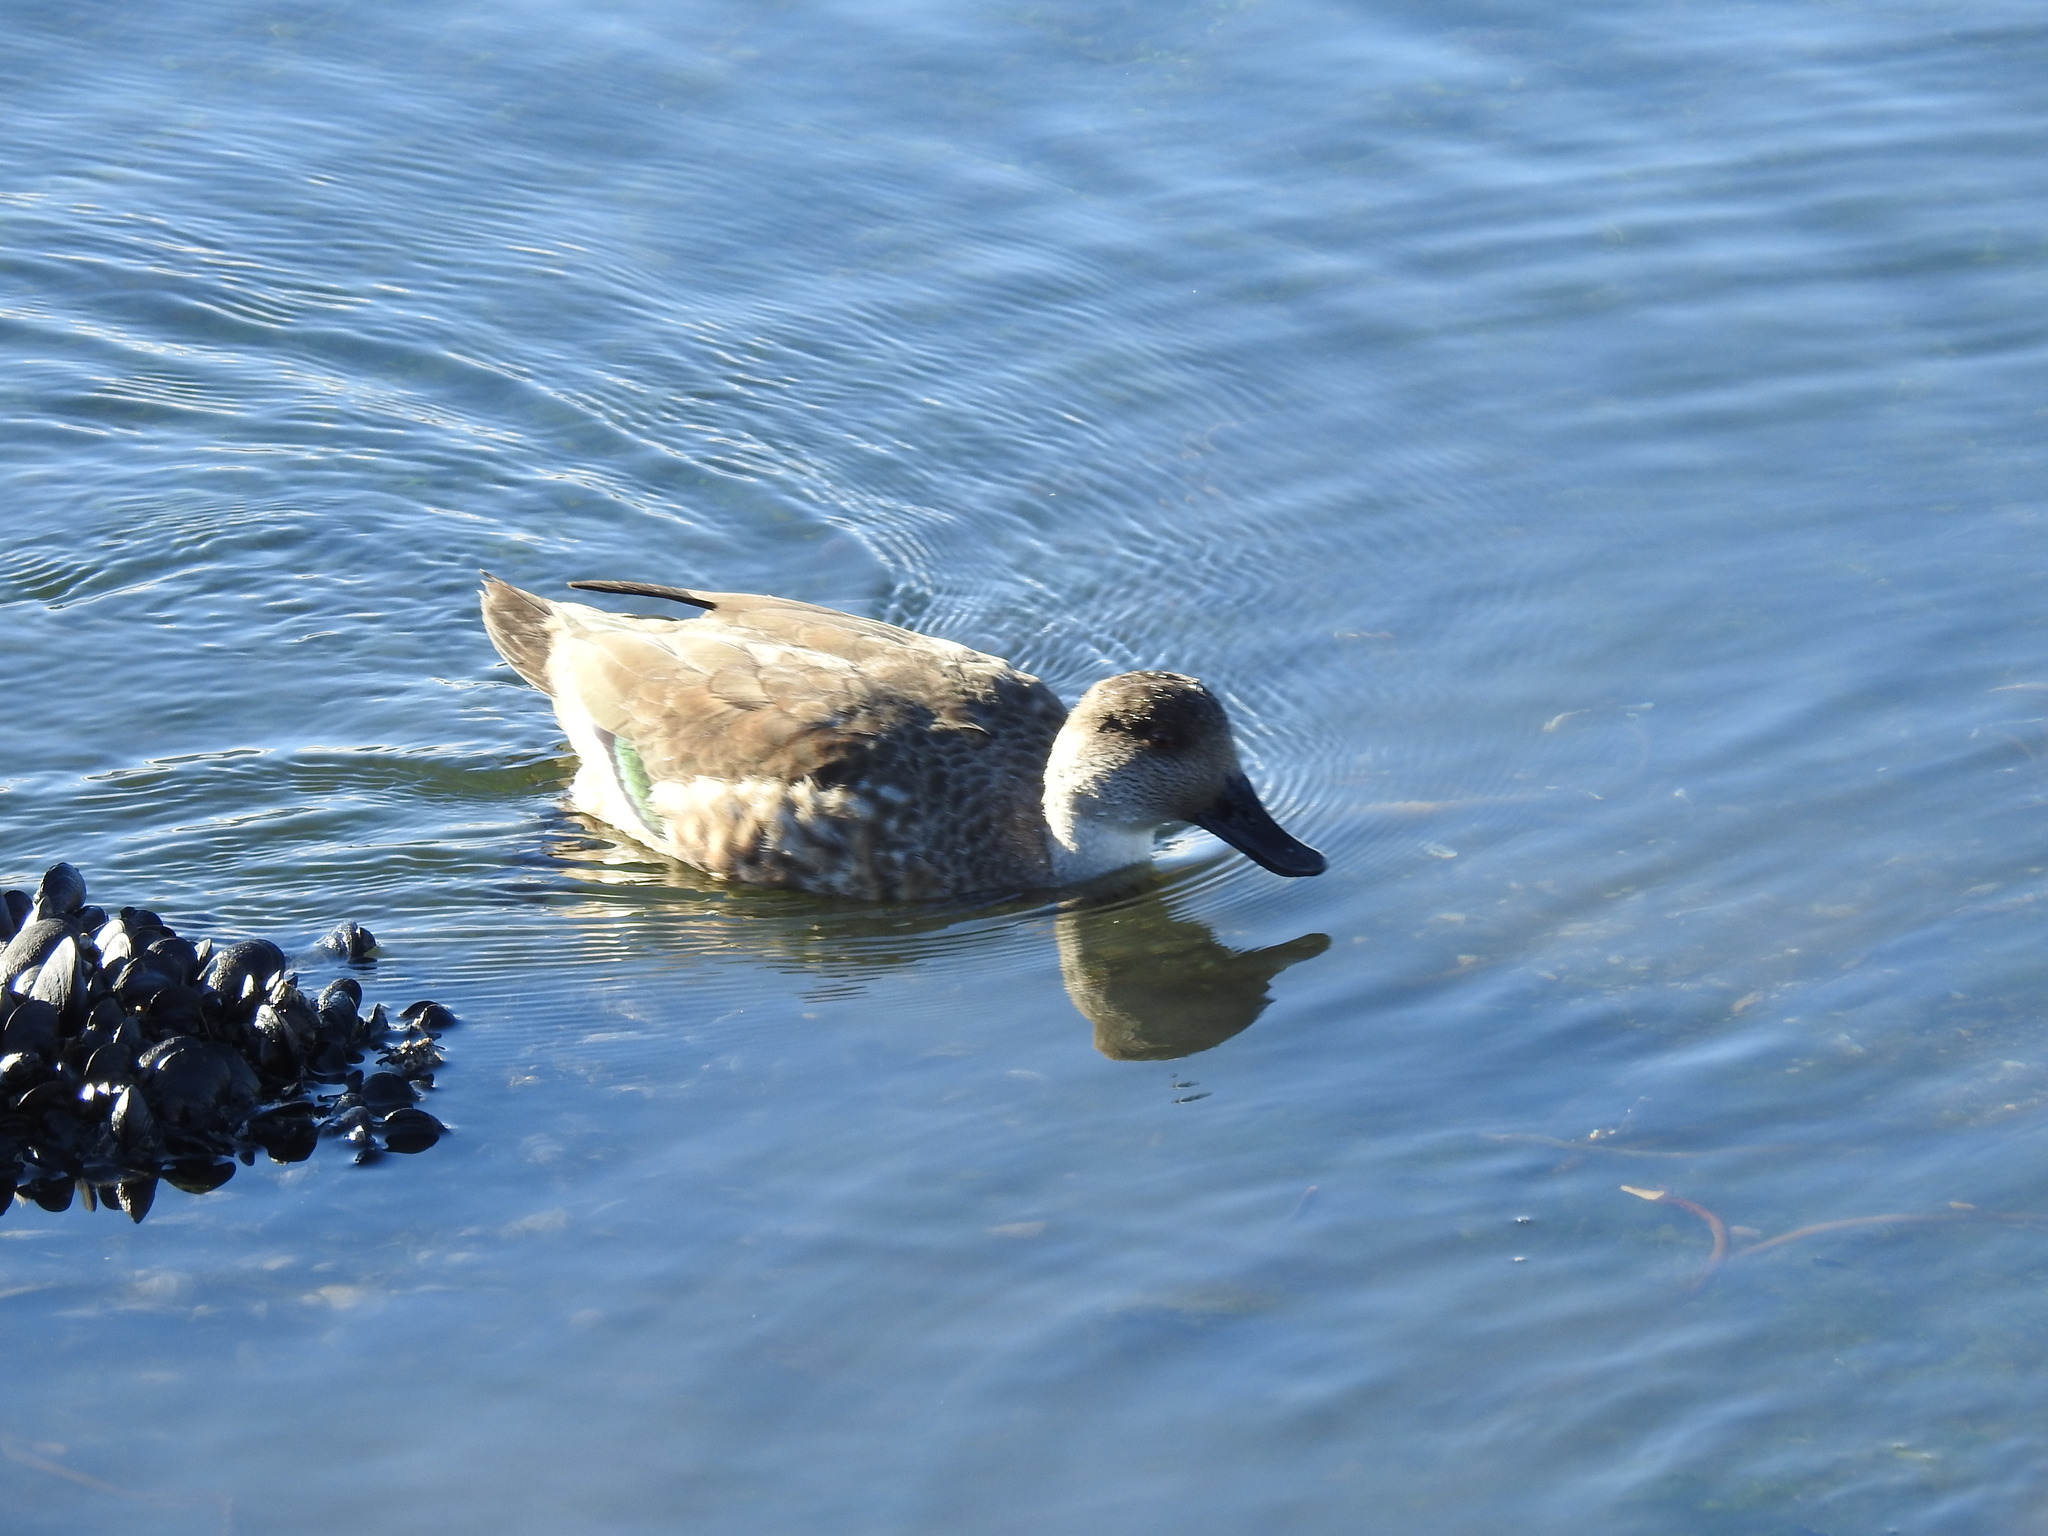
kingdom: Animalia
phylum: Chordata
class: Aves
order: Anseriformes
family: Anatidae
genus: Lophonetta
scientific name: Lophonetta specularioides
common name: Crested duck
